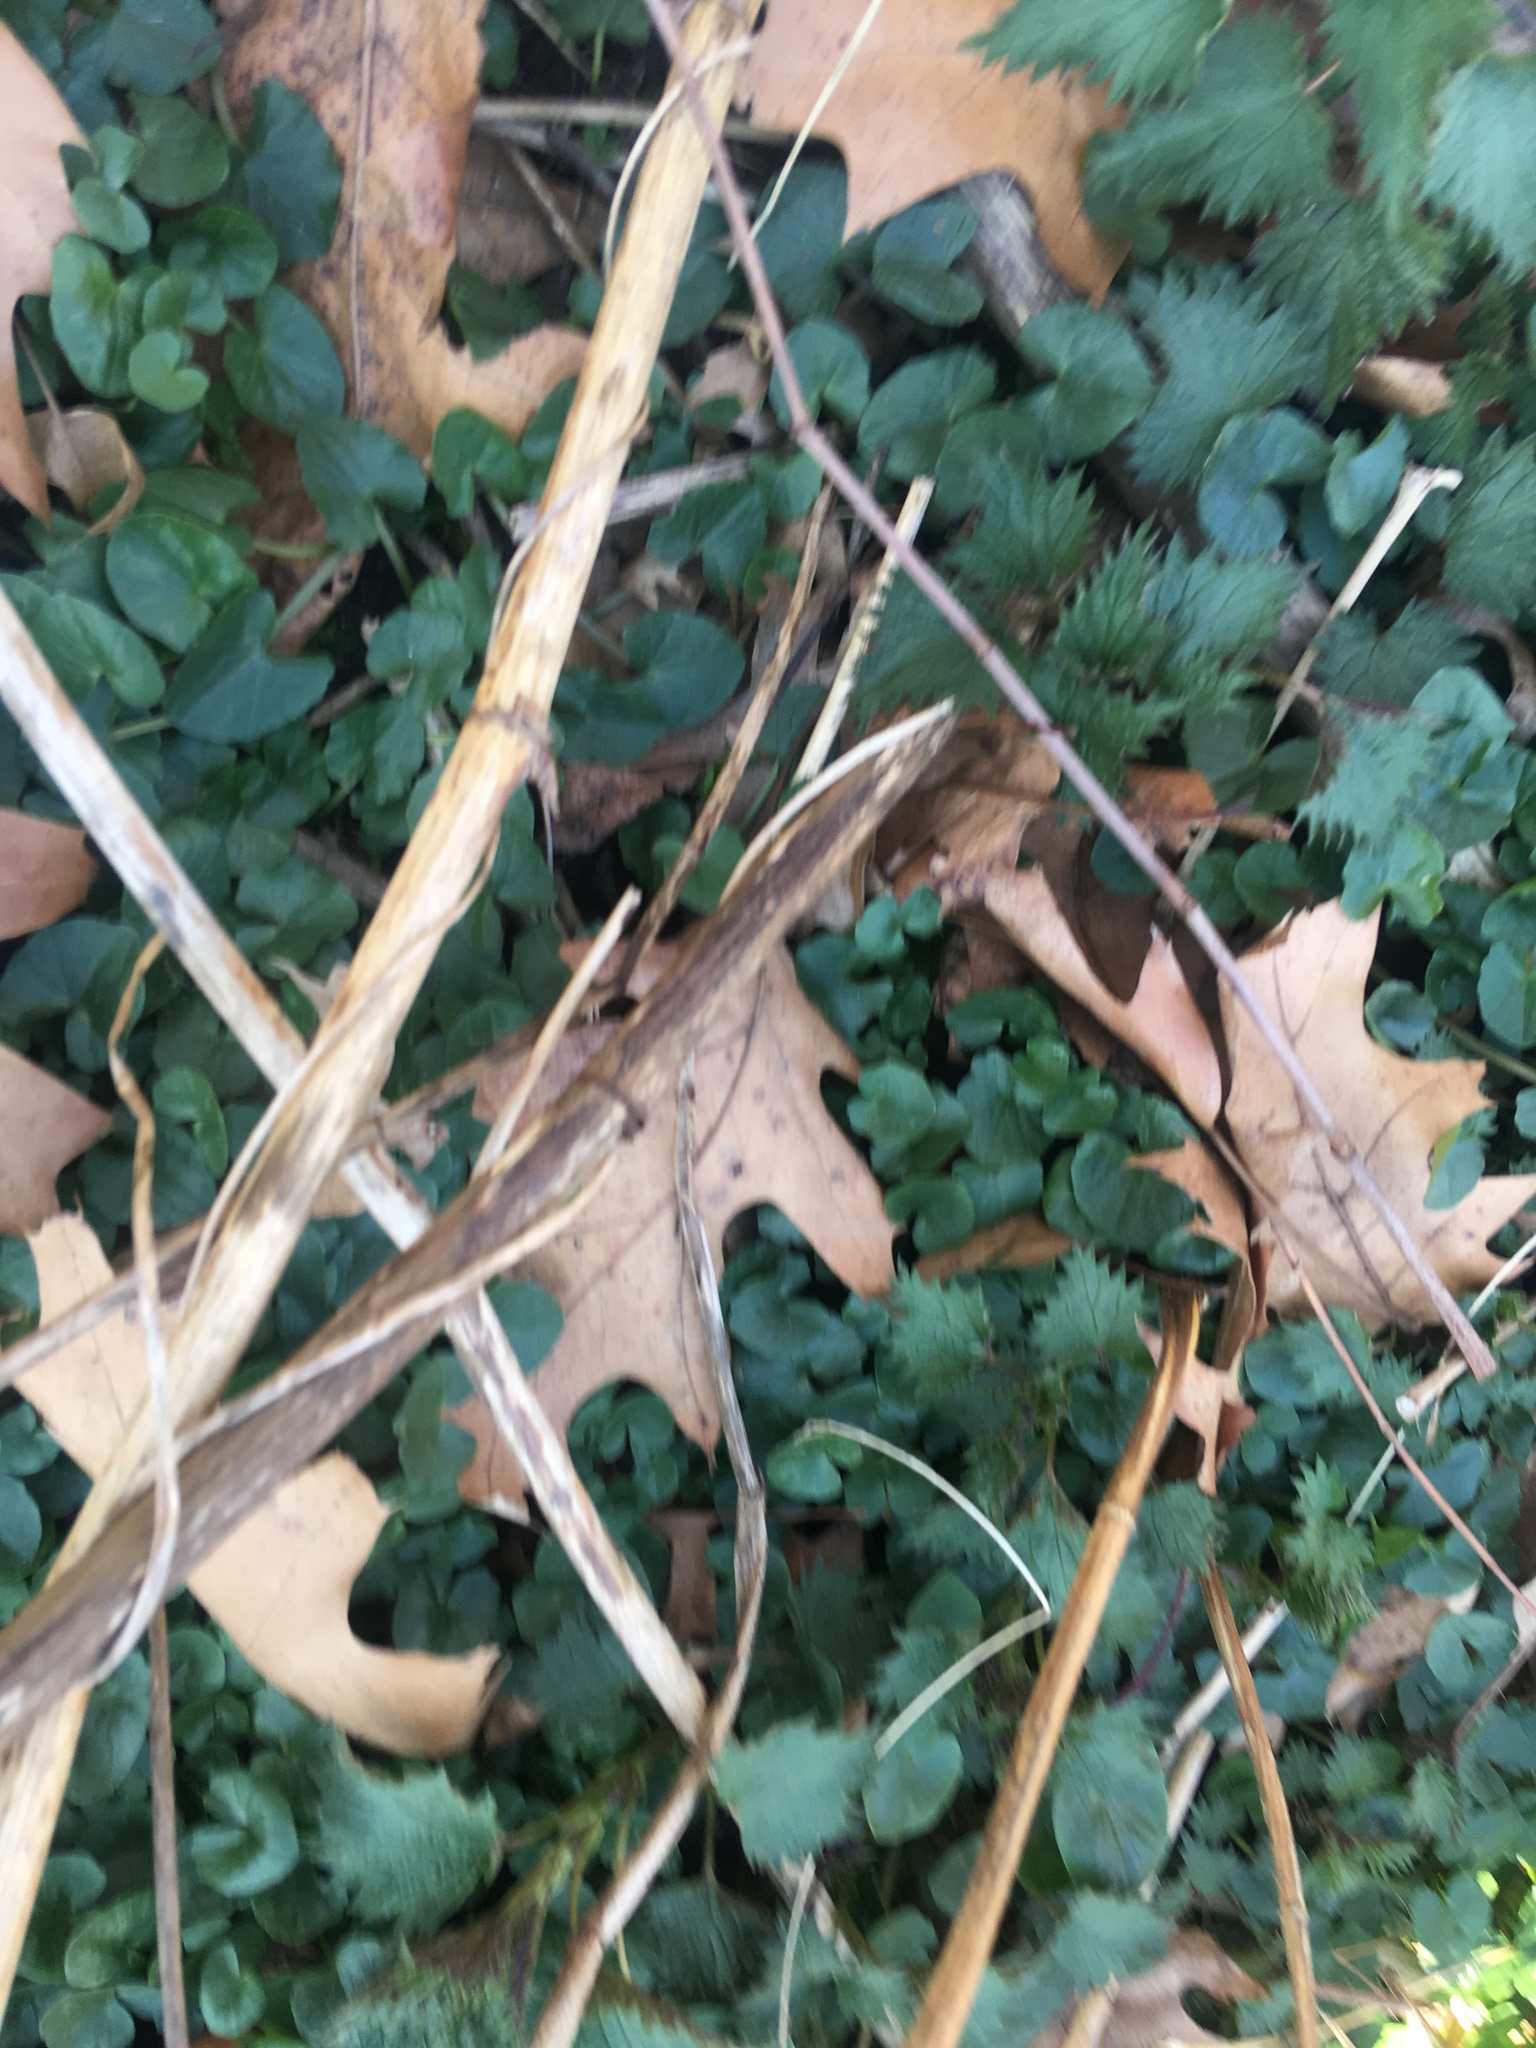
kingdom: Plantae
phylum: Tracheophyta
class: Magnoliopsida
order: Ranunculales
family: Ranunculaceae
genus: Ficaria
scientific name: Ficaria verna
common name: Lesser celandine
